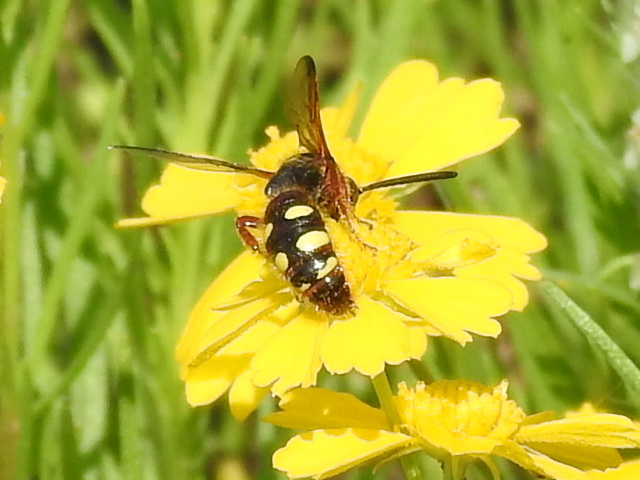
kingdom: Animalia
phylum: Arthropoda
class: Insecta
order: Hymenoptera
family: Scoliidae
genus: Scolia
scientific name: Scolia nobilitata
